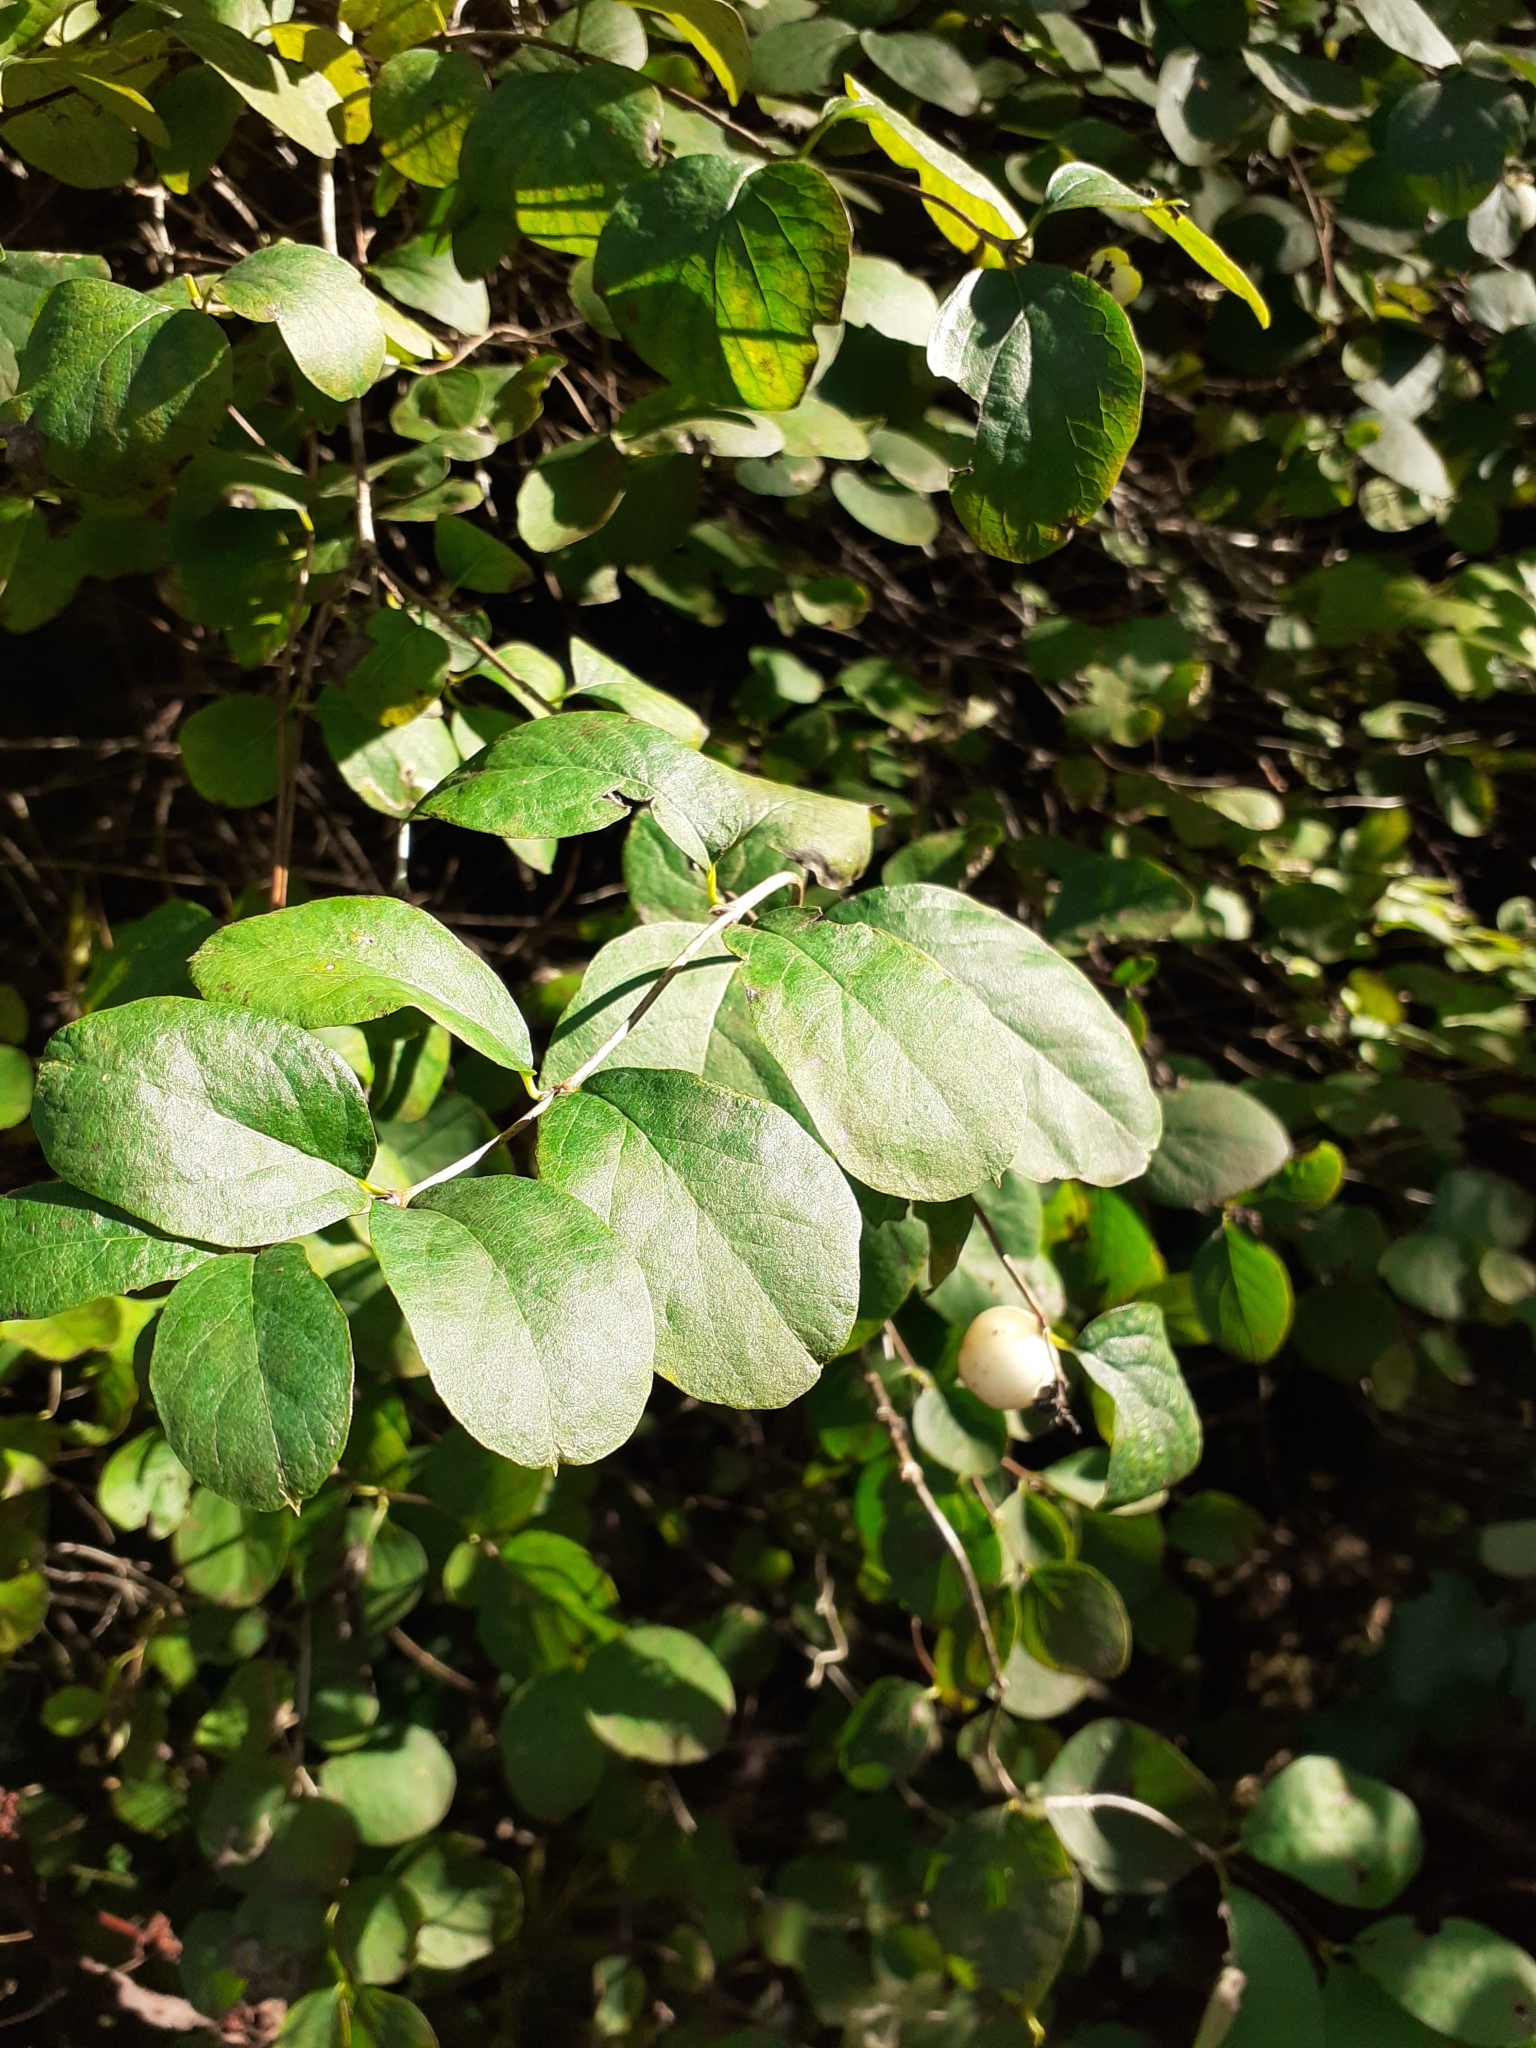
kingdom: Plantae
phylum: Tracheophyta
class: Magnoliopsida
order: Dipsacales
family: Caprifoliaceae
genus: Symphoricarpos
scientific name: Symphoricarpos albus
